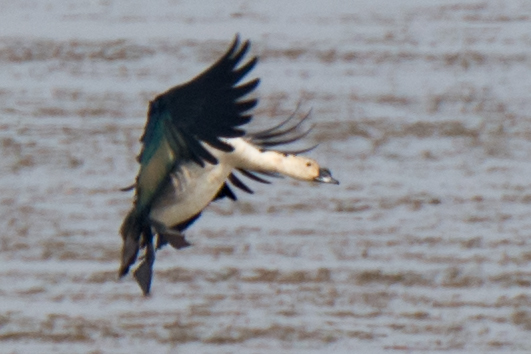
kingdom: Animalia
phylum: Chordata
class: Aves
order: Anseriformes
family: Anatidae
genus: Sarkidiornis
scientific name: Sarkidiornis melanotos
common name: Comb duck
